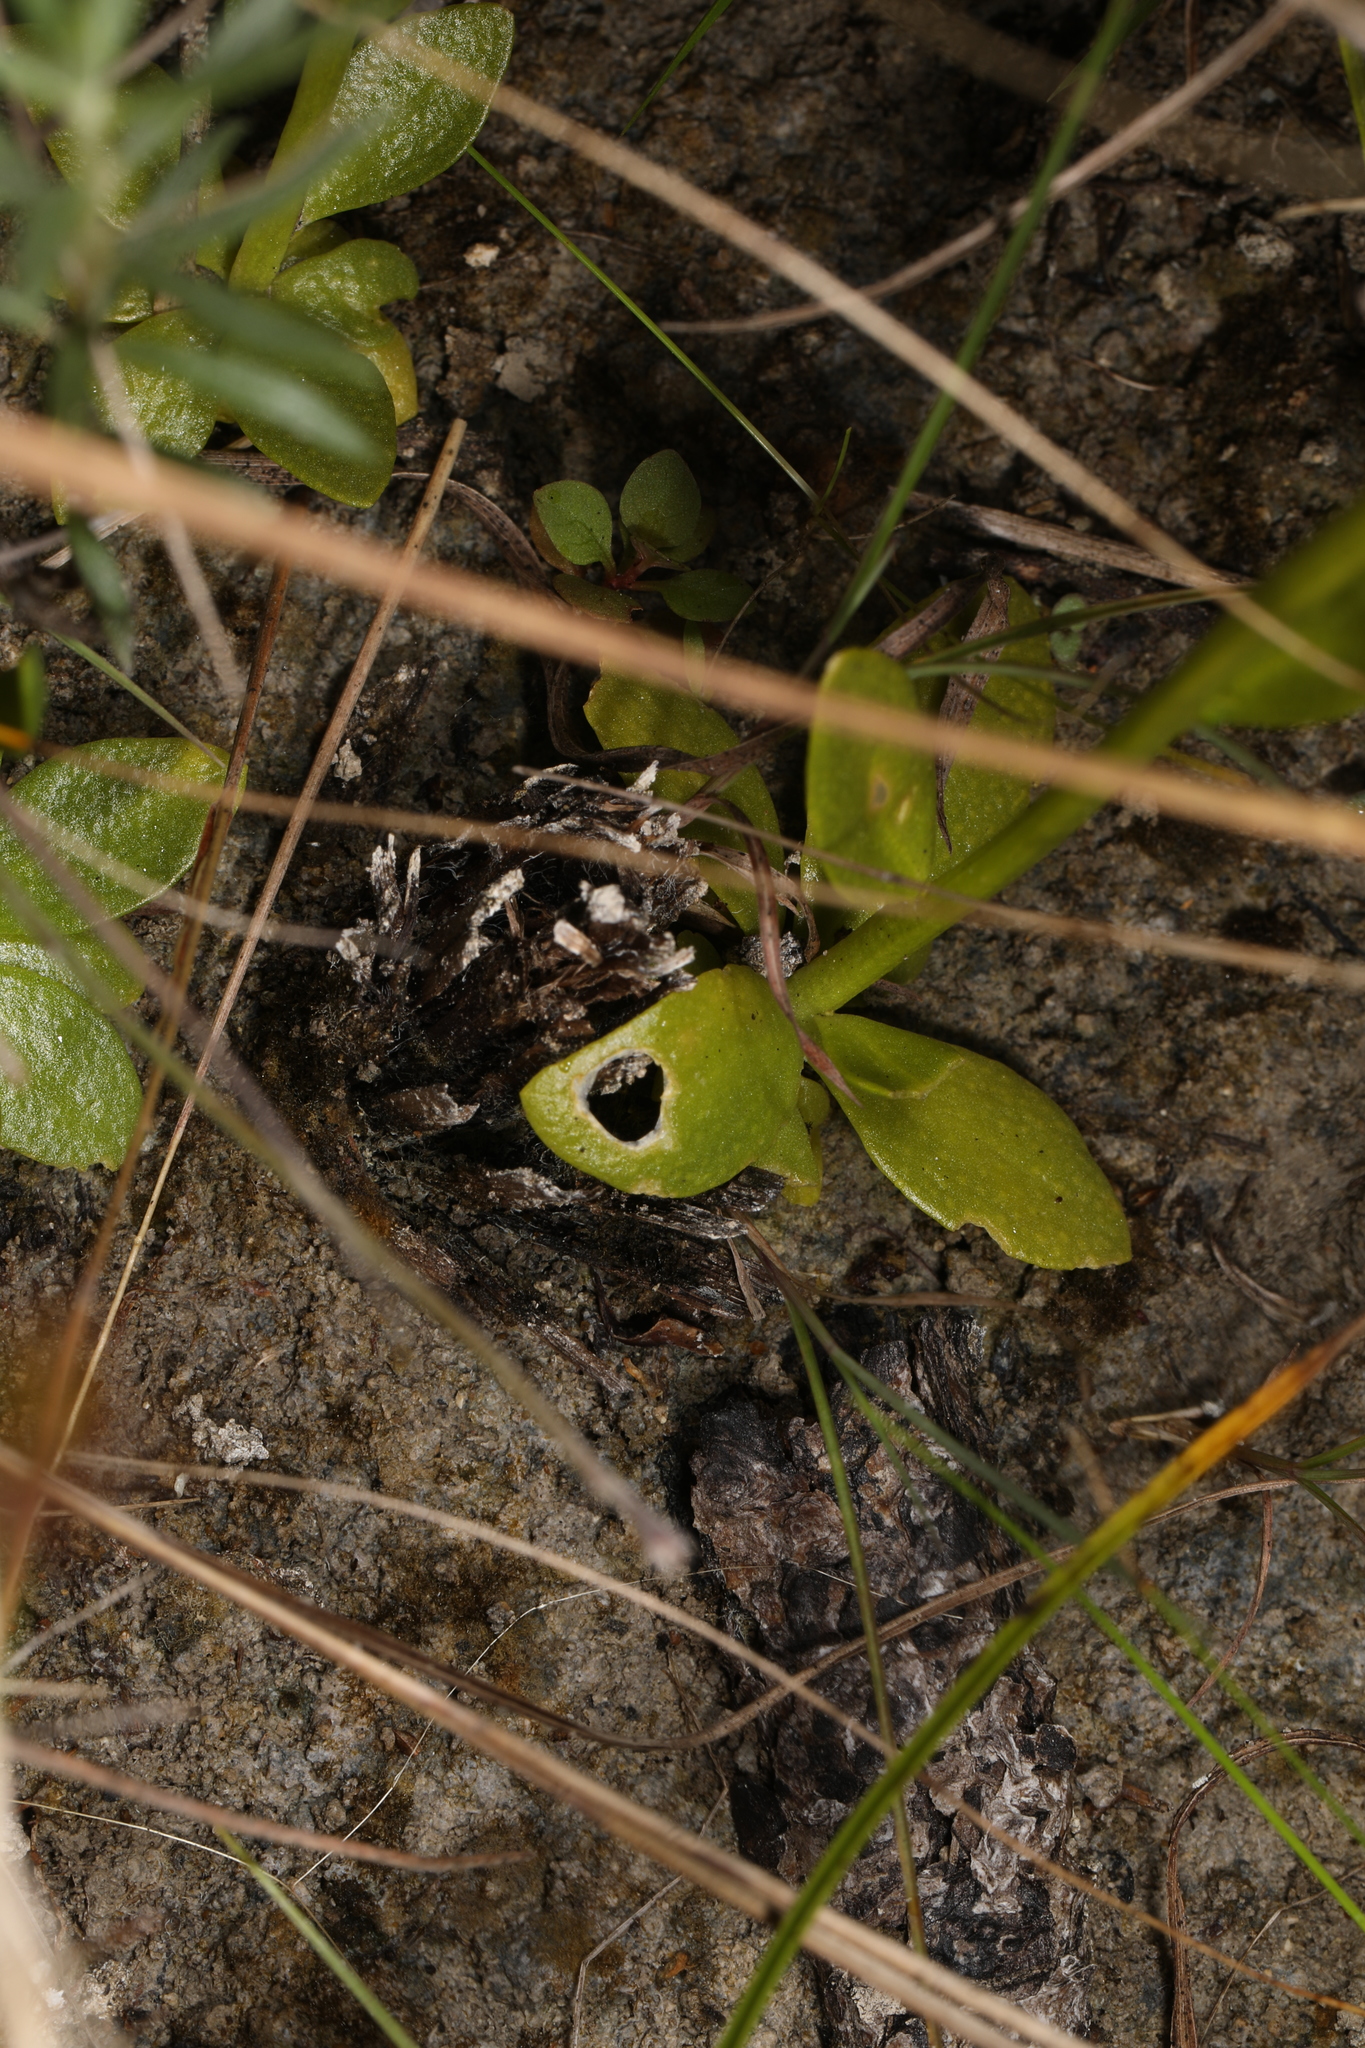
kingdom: Plantae
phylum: Tracheophyta
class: Magnoliopsida
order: Fabales
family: Polygalaceae
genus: Polygala
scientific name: Polygala baldwinii
